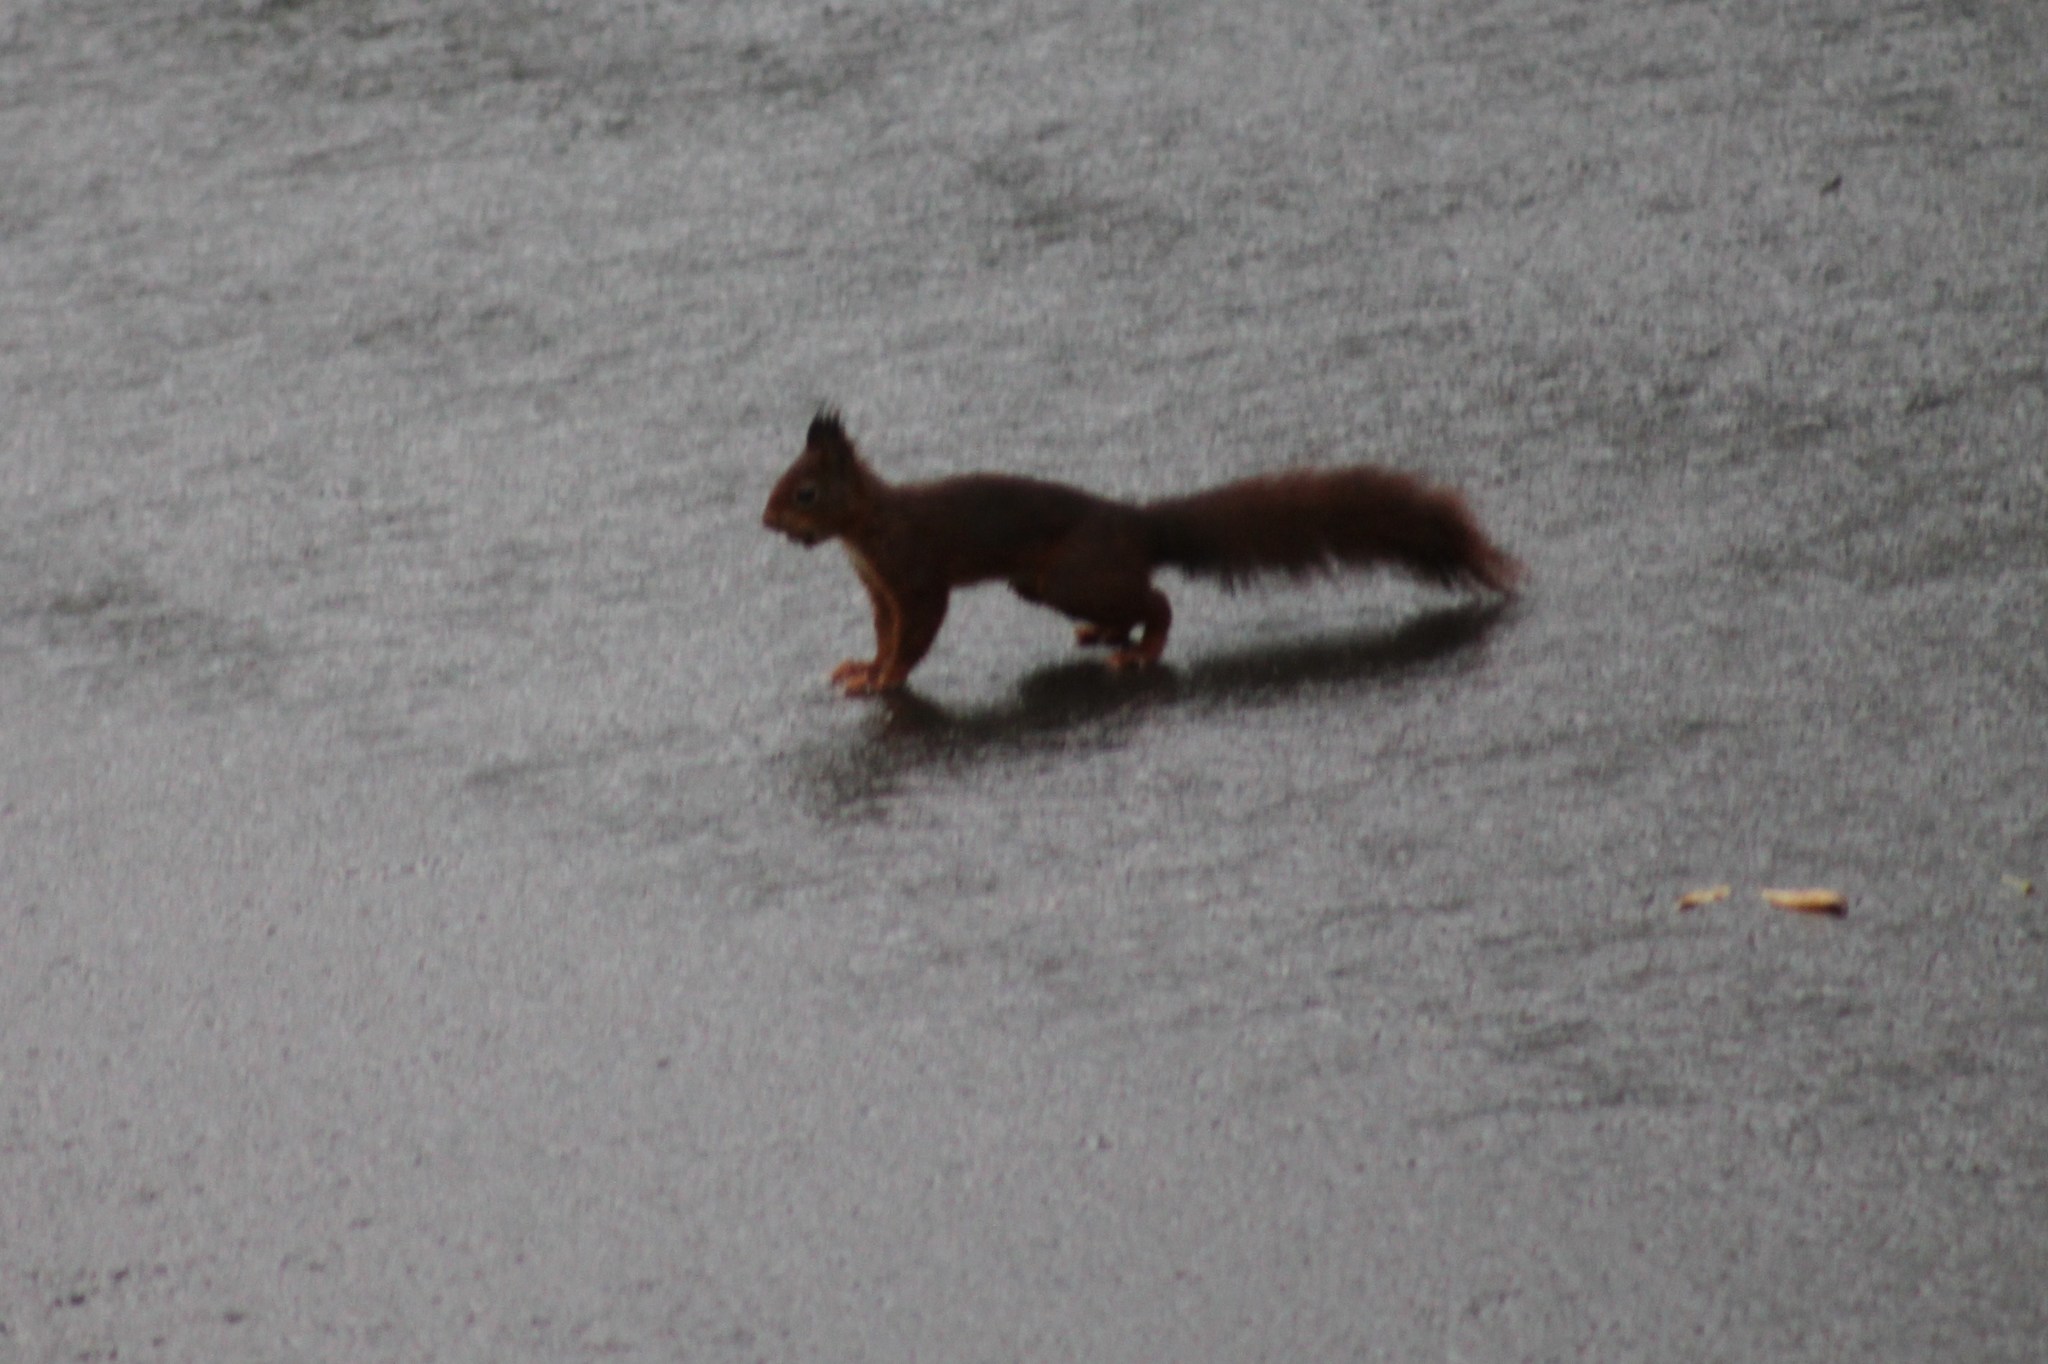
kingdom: Animalia
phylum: Chordata
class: Mammalia
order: Rodentia
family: Sciuridae
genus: Sciurus
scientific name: Sciurus vulgaris
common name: Eurasian red squirrel
